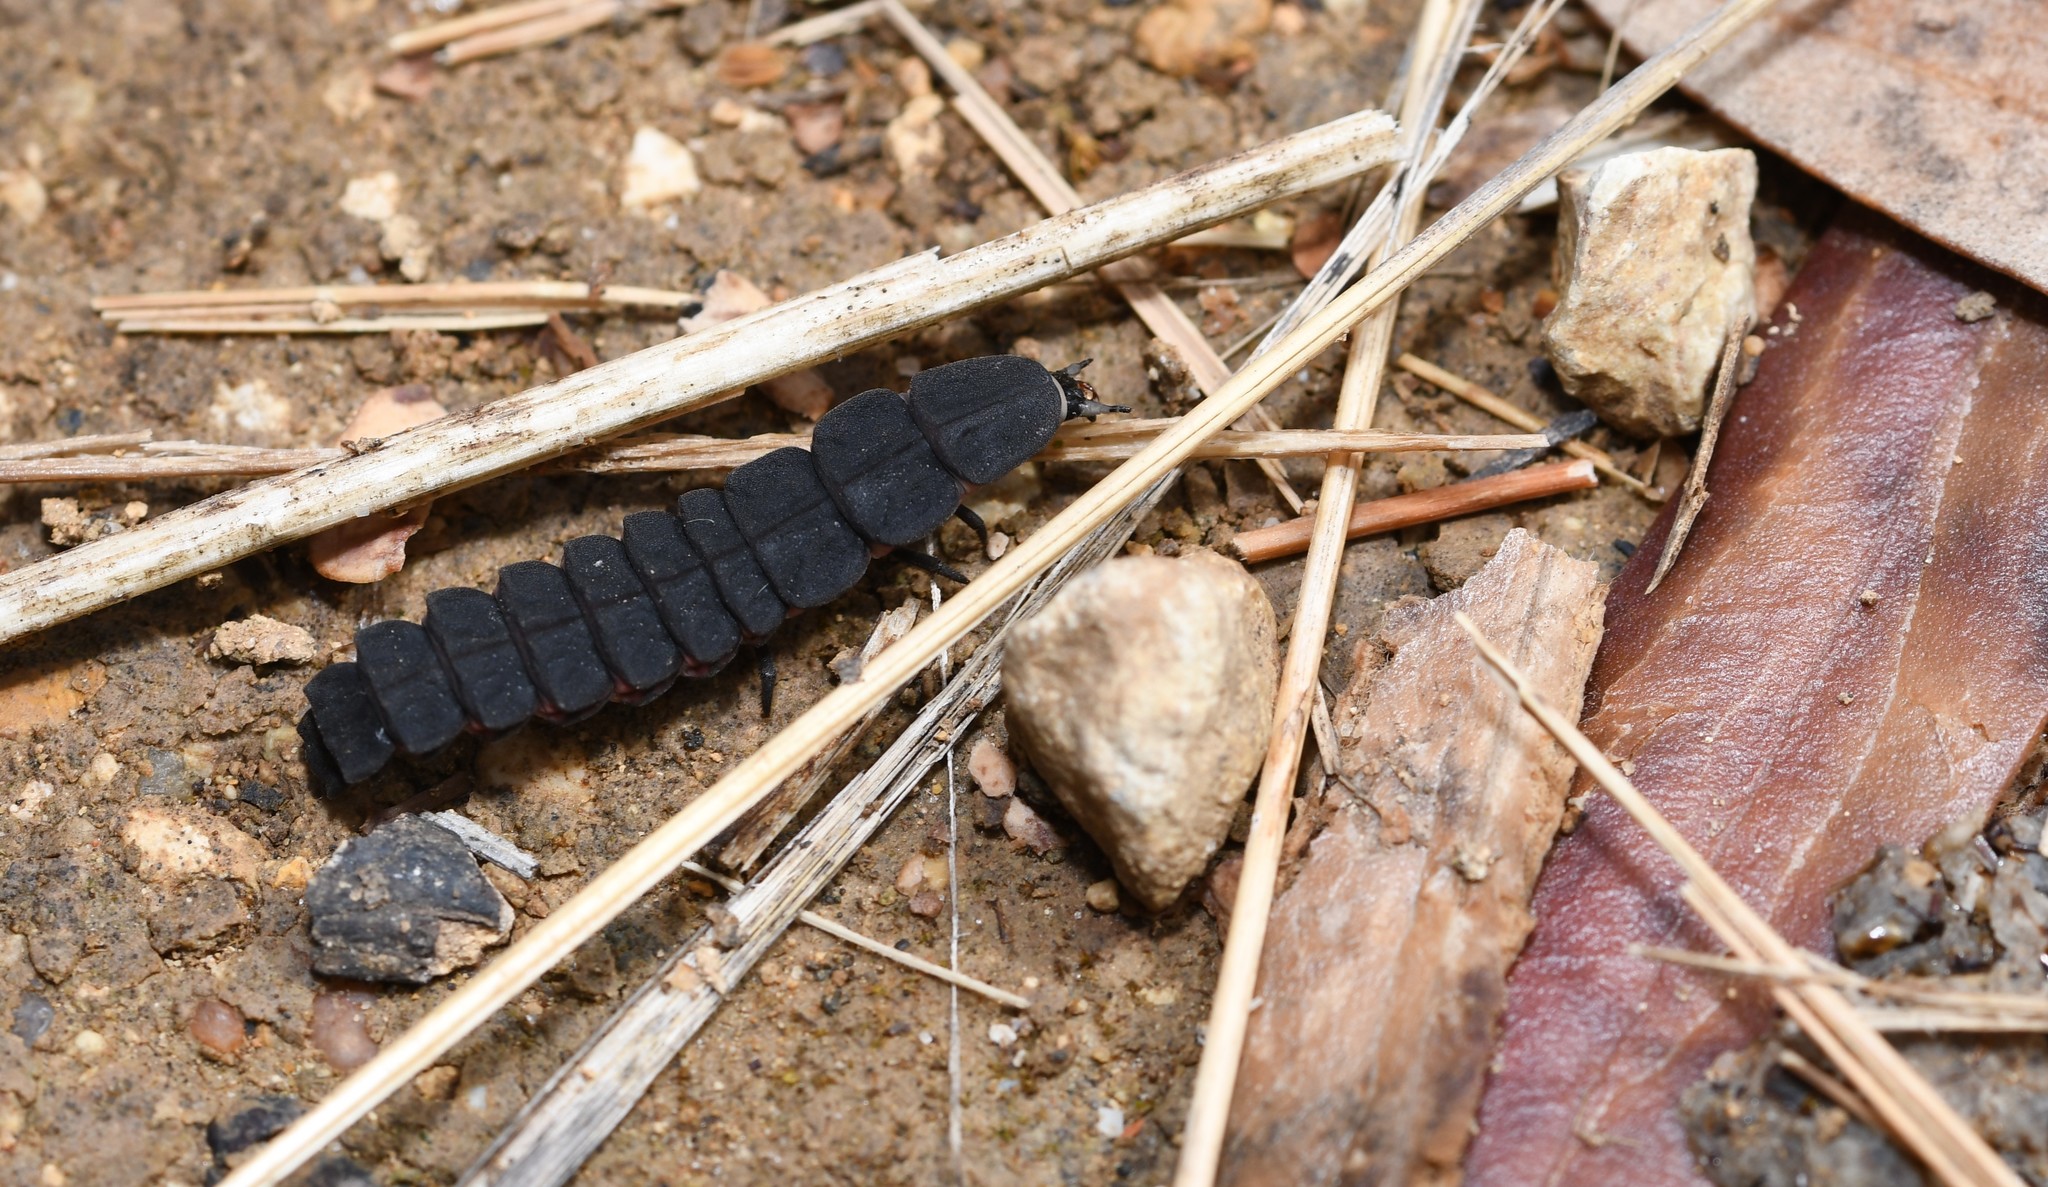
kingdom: Animalia
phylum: Arthropoda
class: Insecta
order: Coleoptera
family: Lampyridae
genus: Nyctophila
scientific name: Nyctophila reichii
